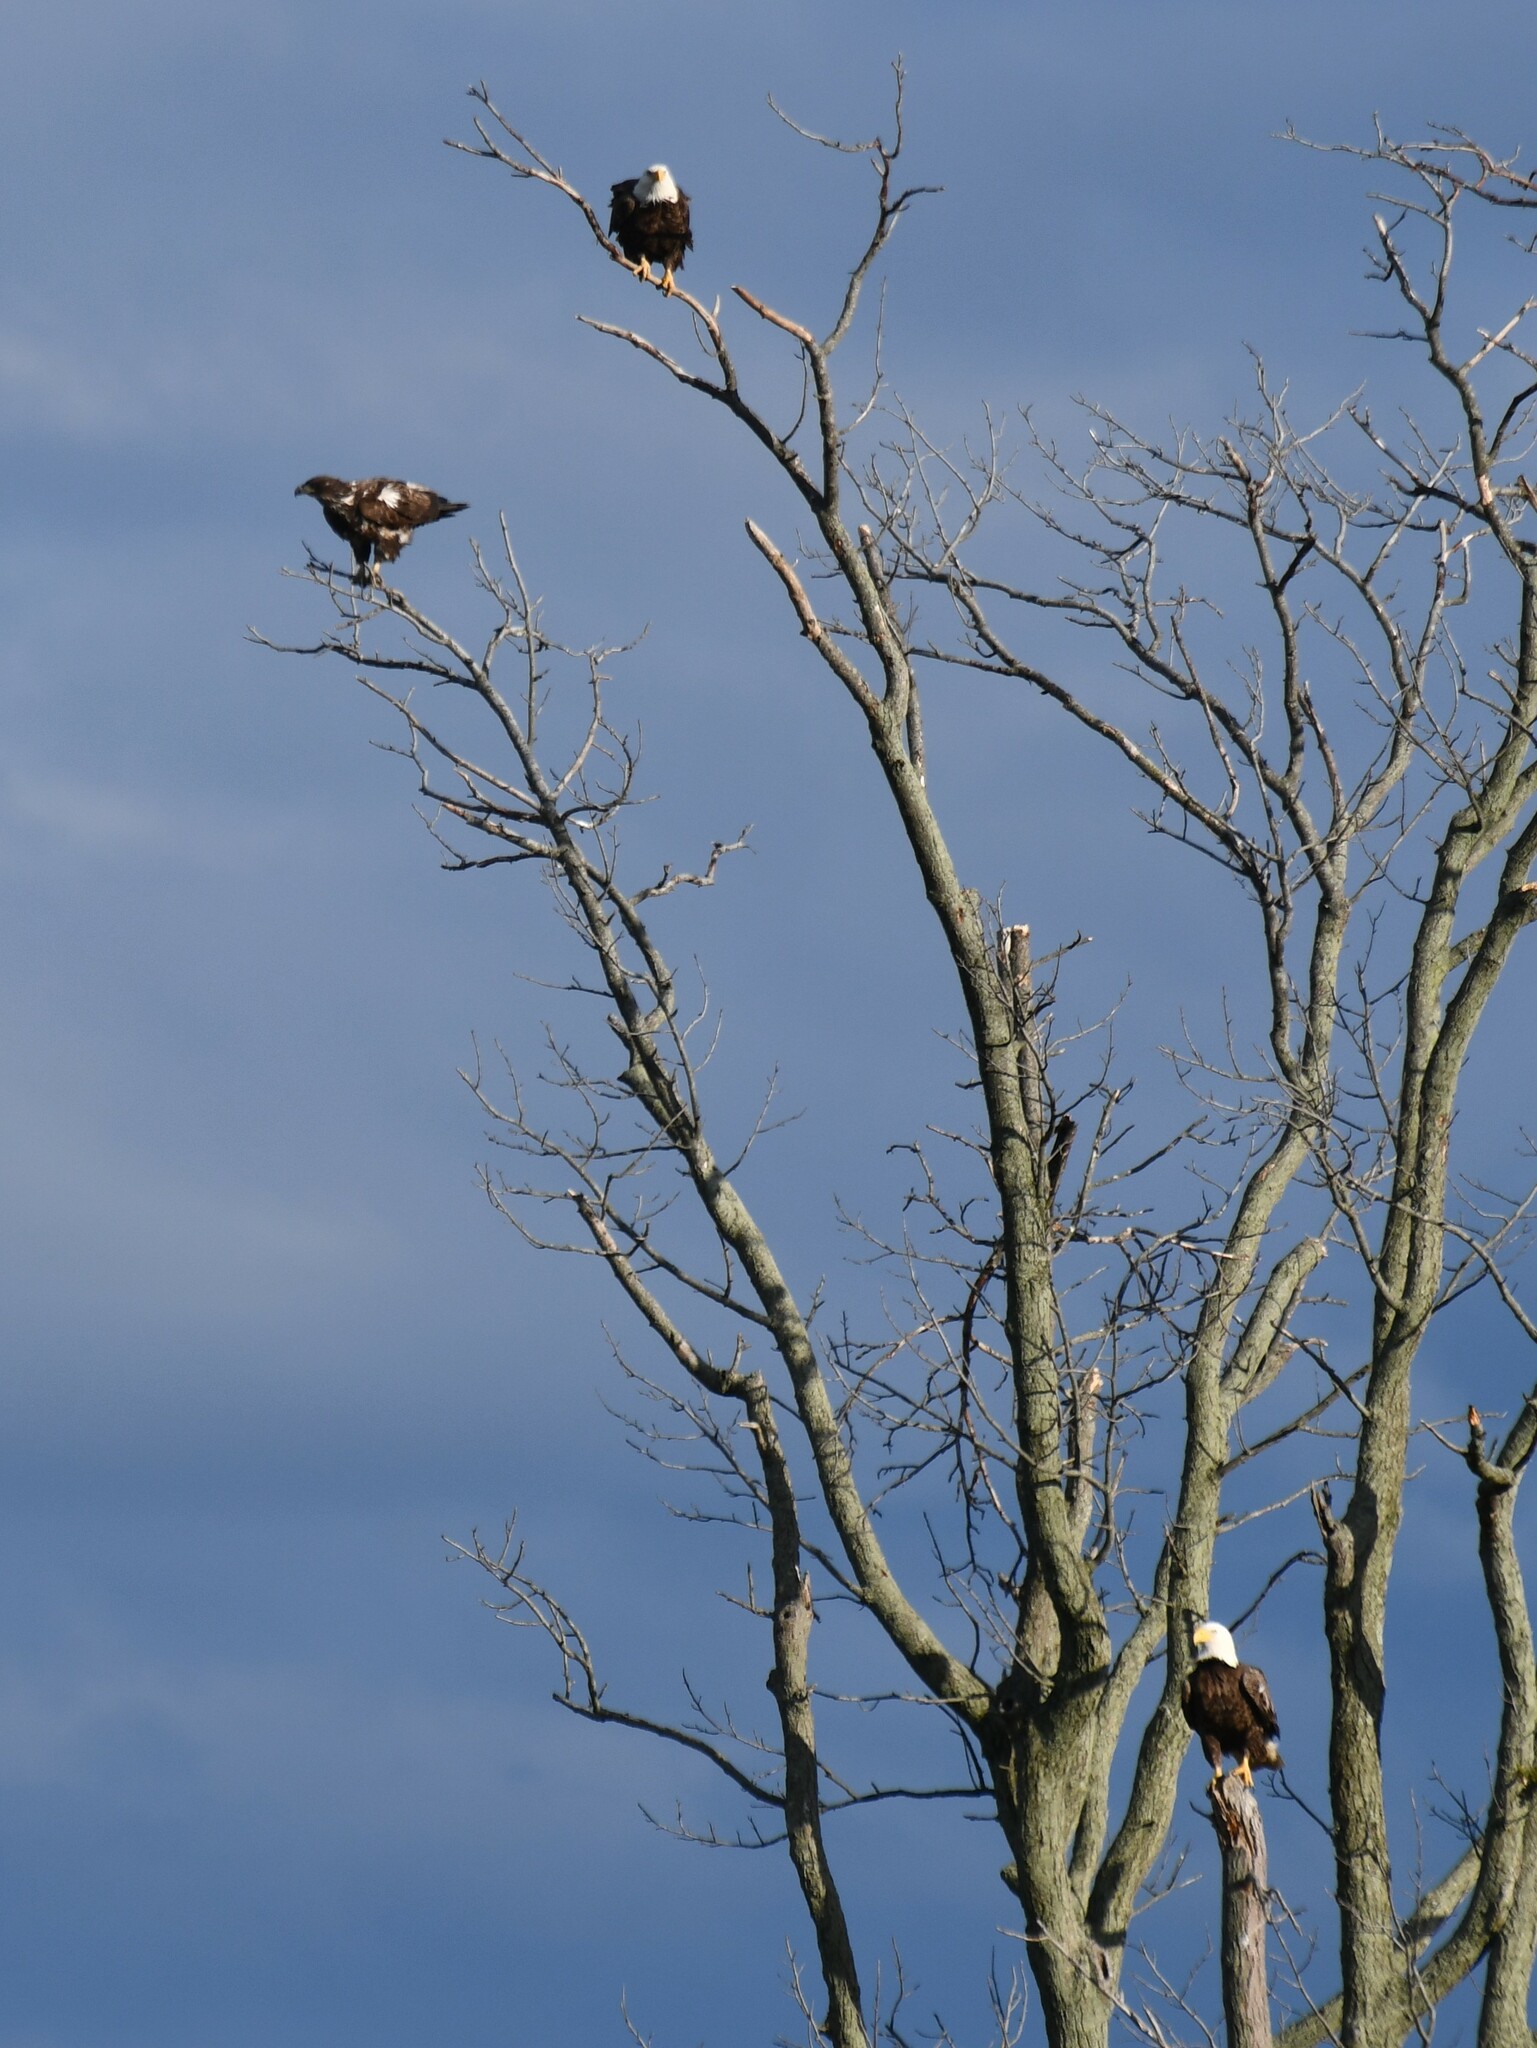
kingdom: Animalia
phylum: Chordata
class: Aves
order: Accipitriformes
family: Accipitridae
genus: Haliaeetus
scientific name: Haliaeetus leucocephalus
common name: Bald eagle
